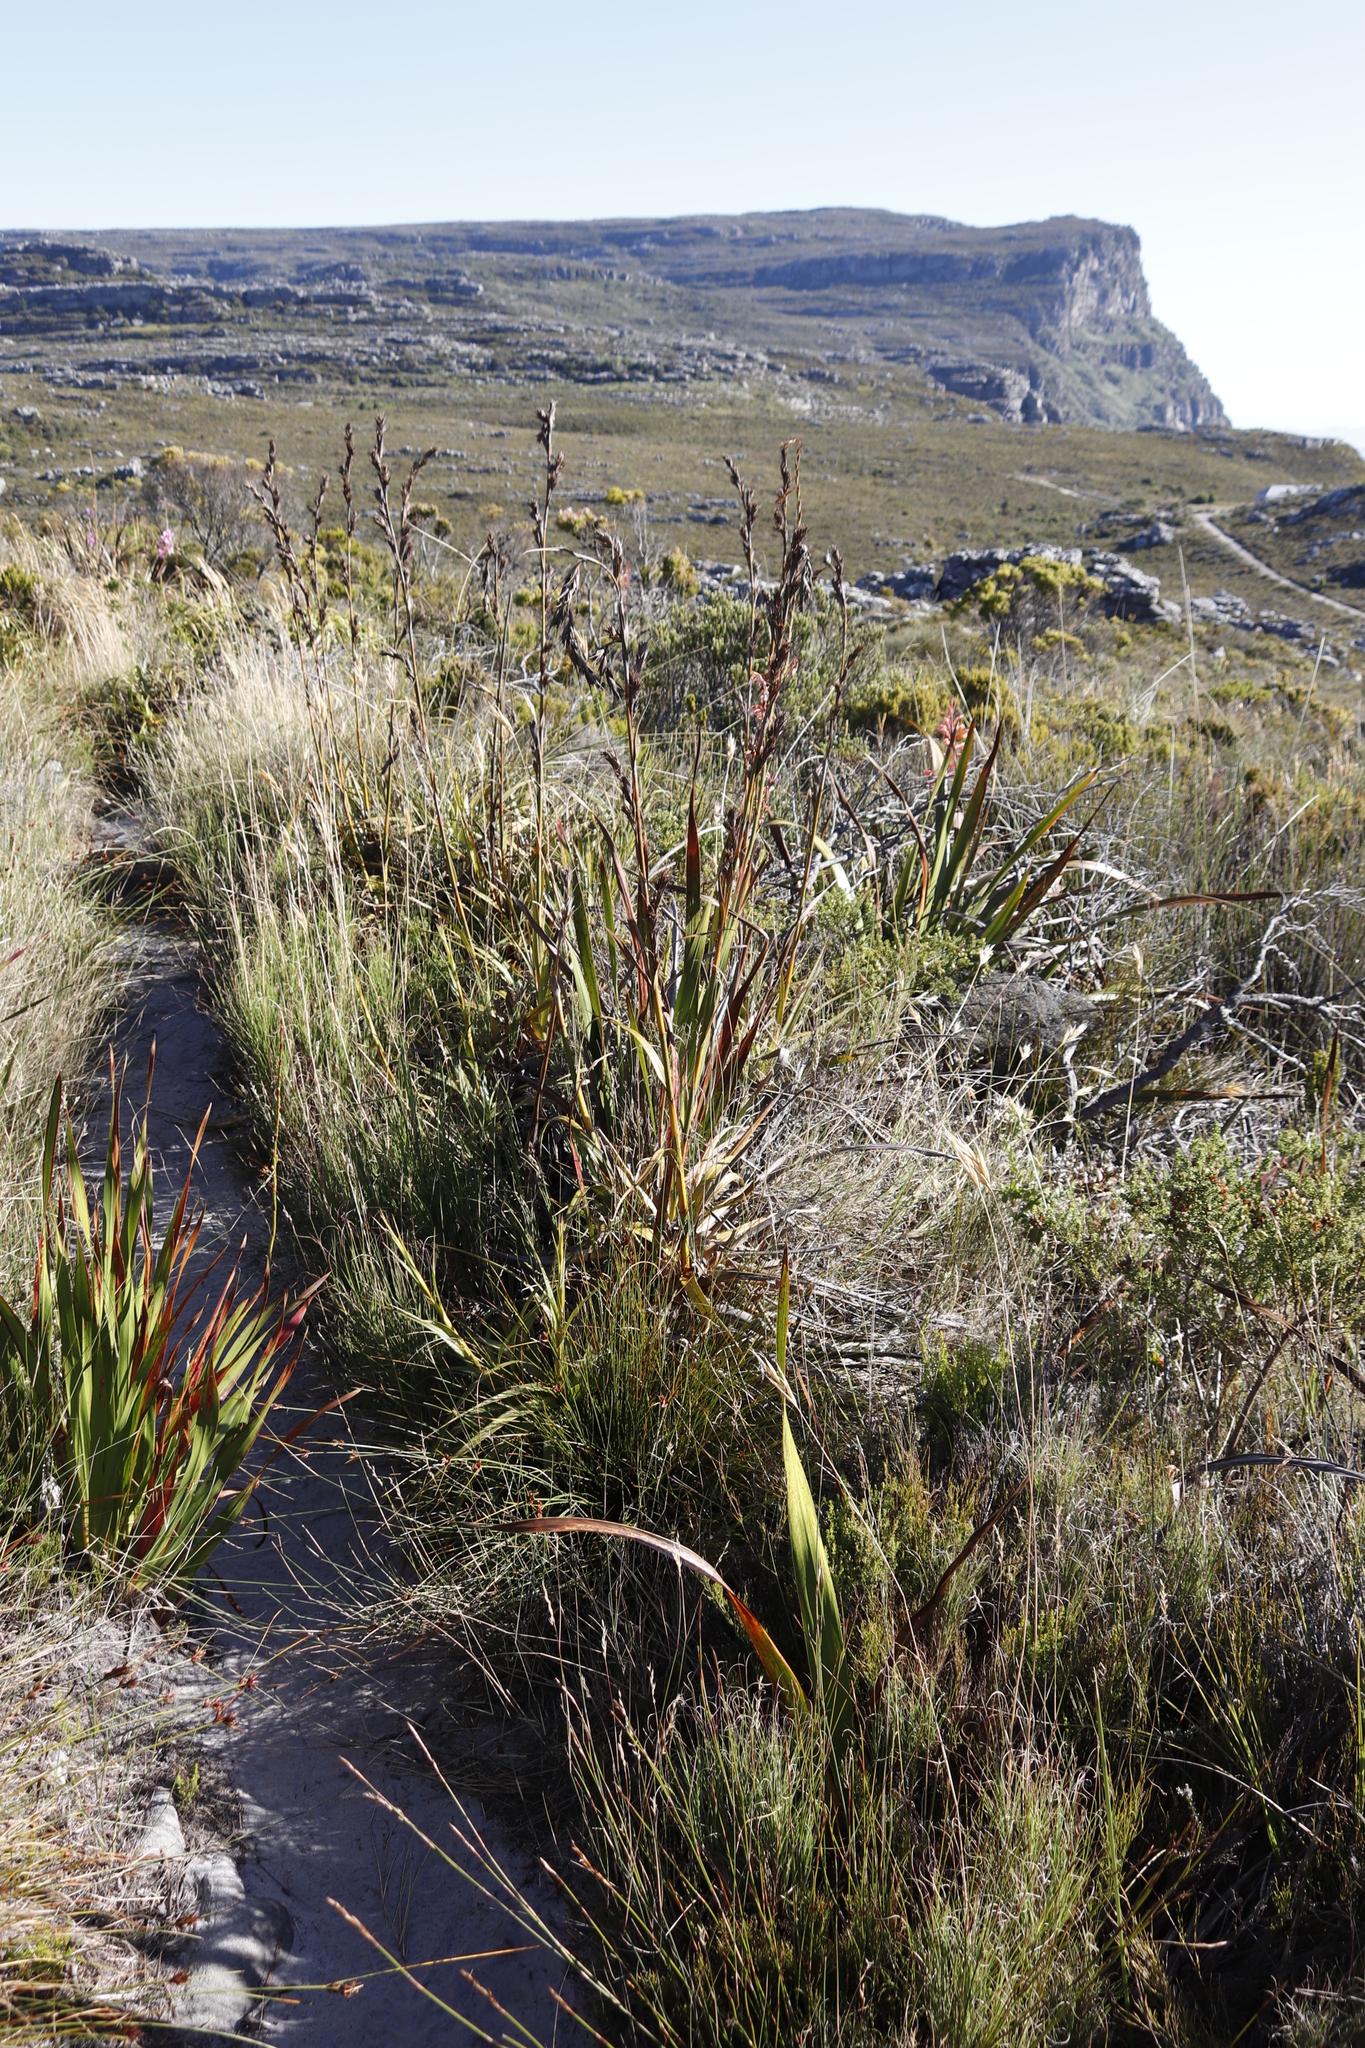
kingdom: Plantae
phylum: Tracheophyta
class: Liliopsida
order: Poales
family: Cyperaceae
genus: Tetraria
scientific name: Tetraria bromoides
